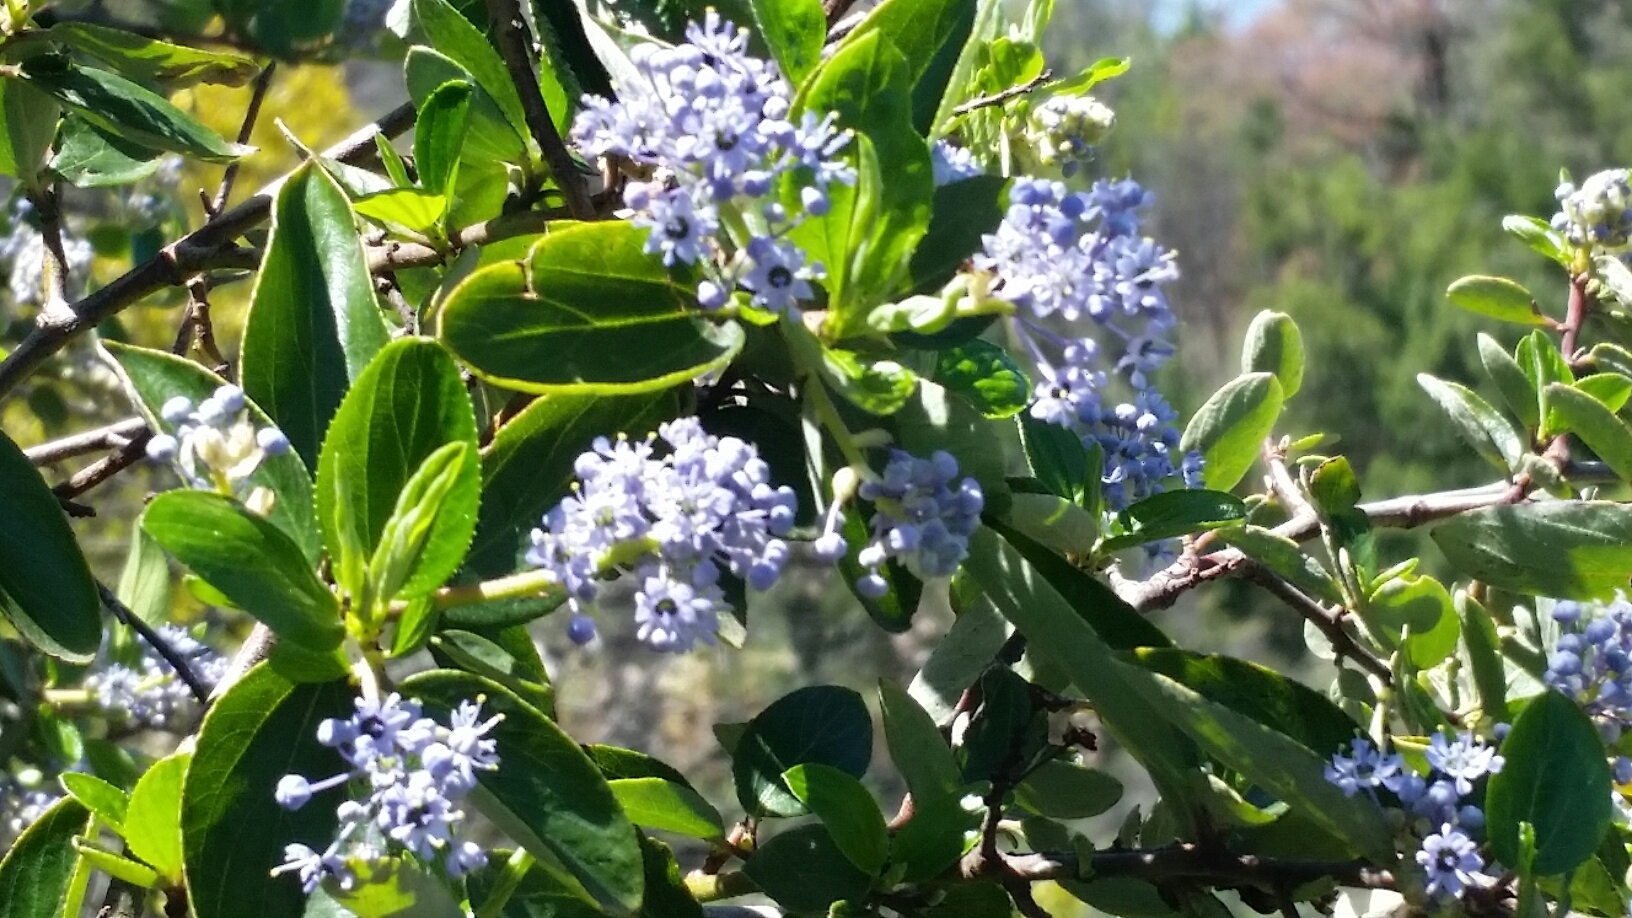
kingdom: Plantae
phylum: Tracheophyta
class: Magnoliopsida
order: Rosales
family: Rhamnaceae
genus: Ceanothus
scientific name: Ceanothus sorediatus
